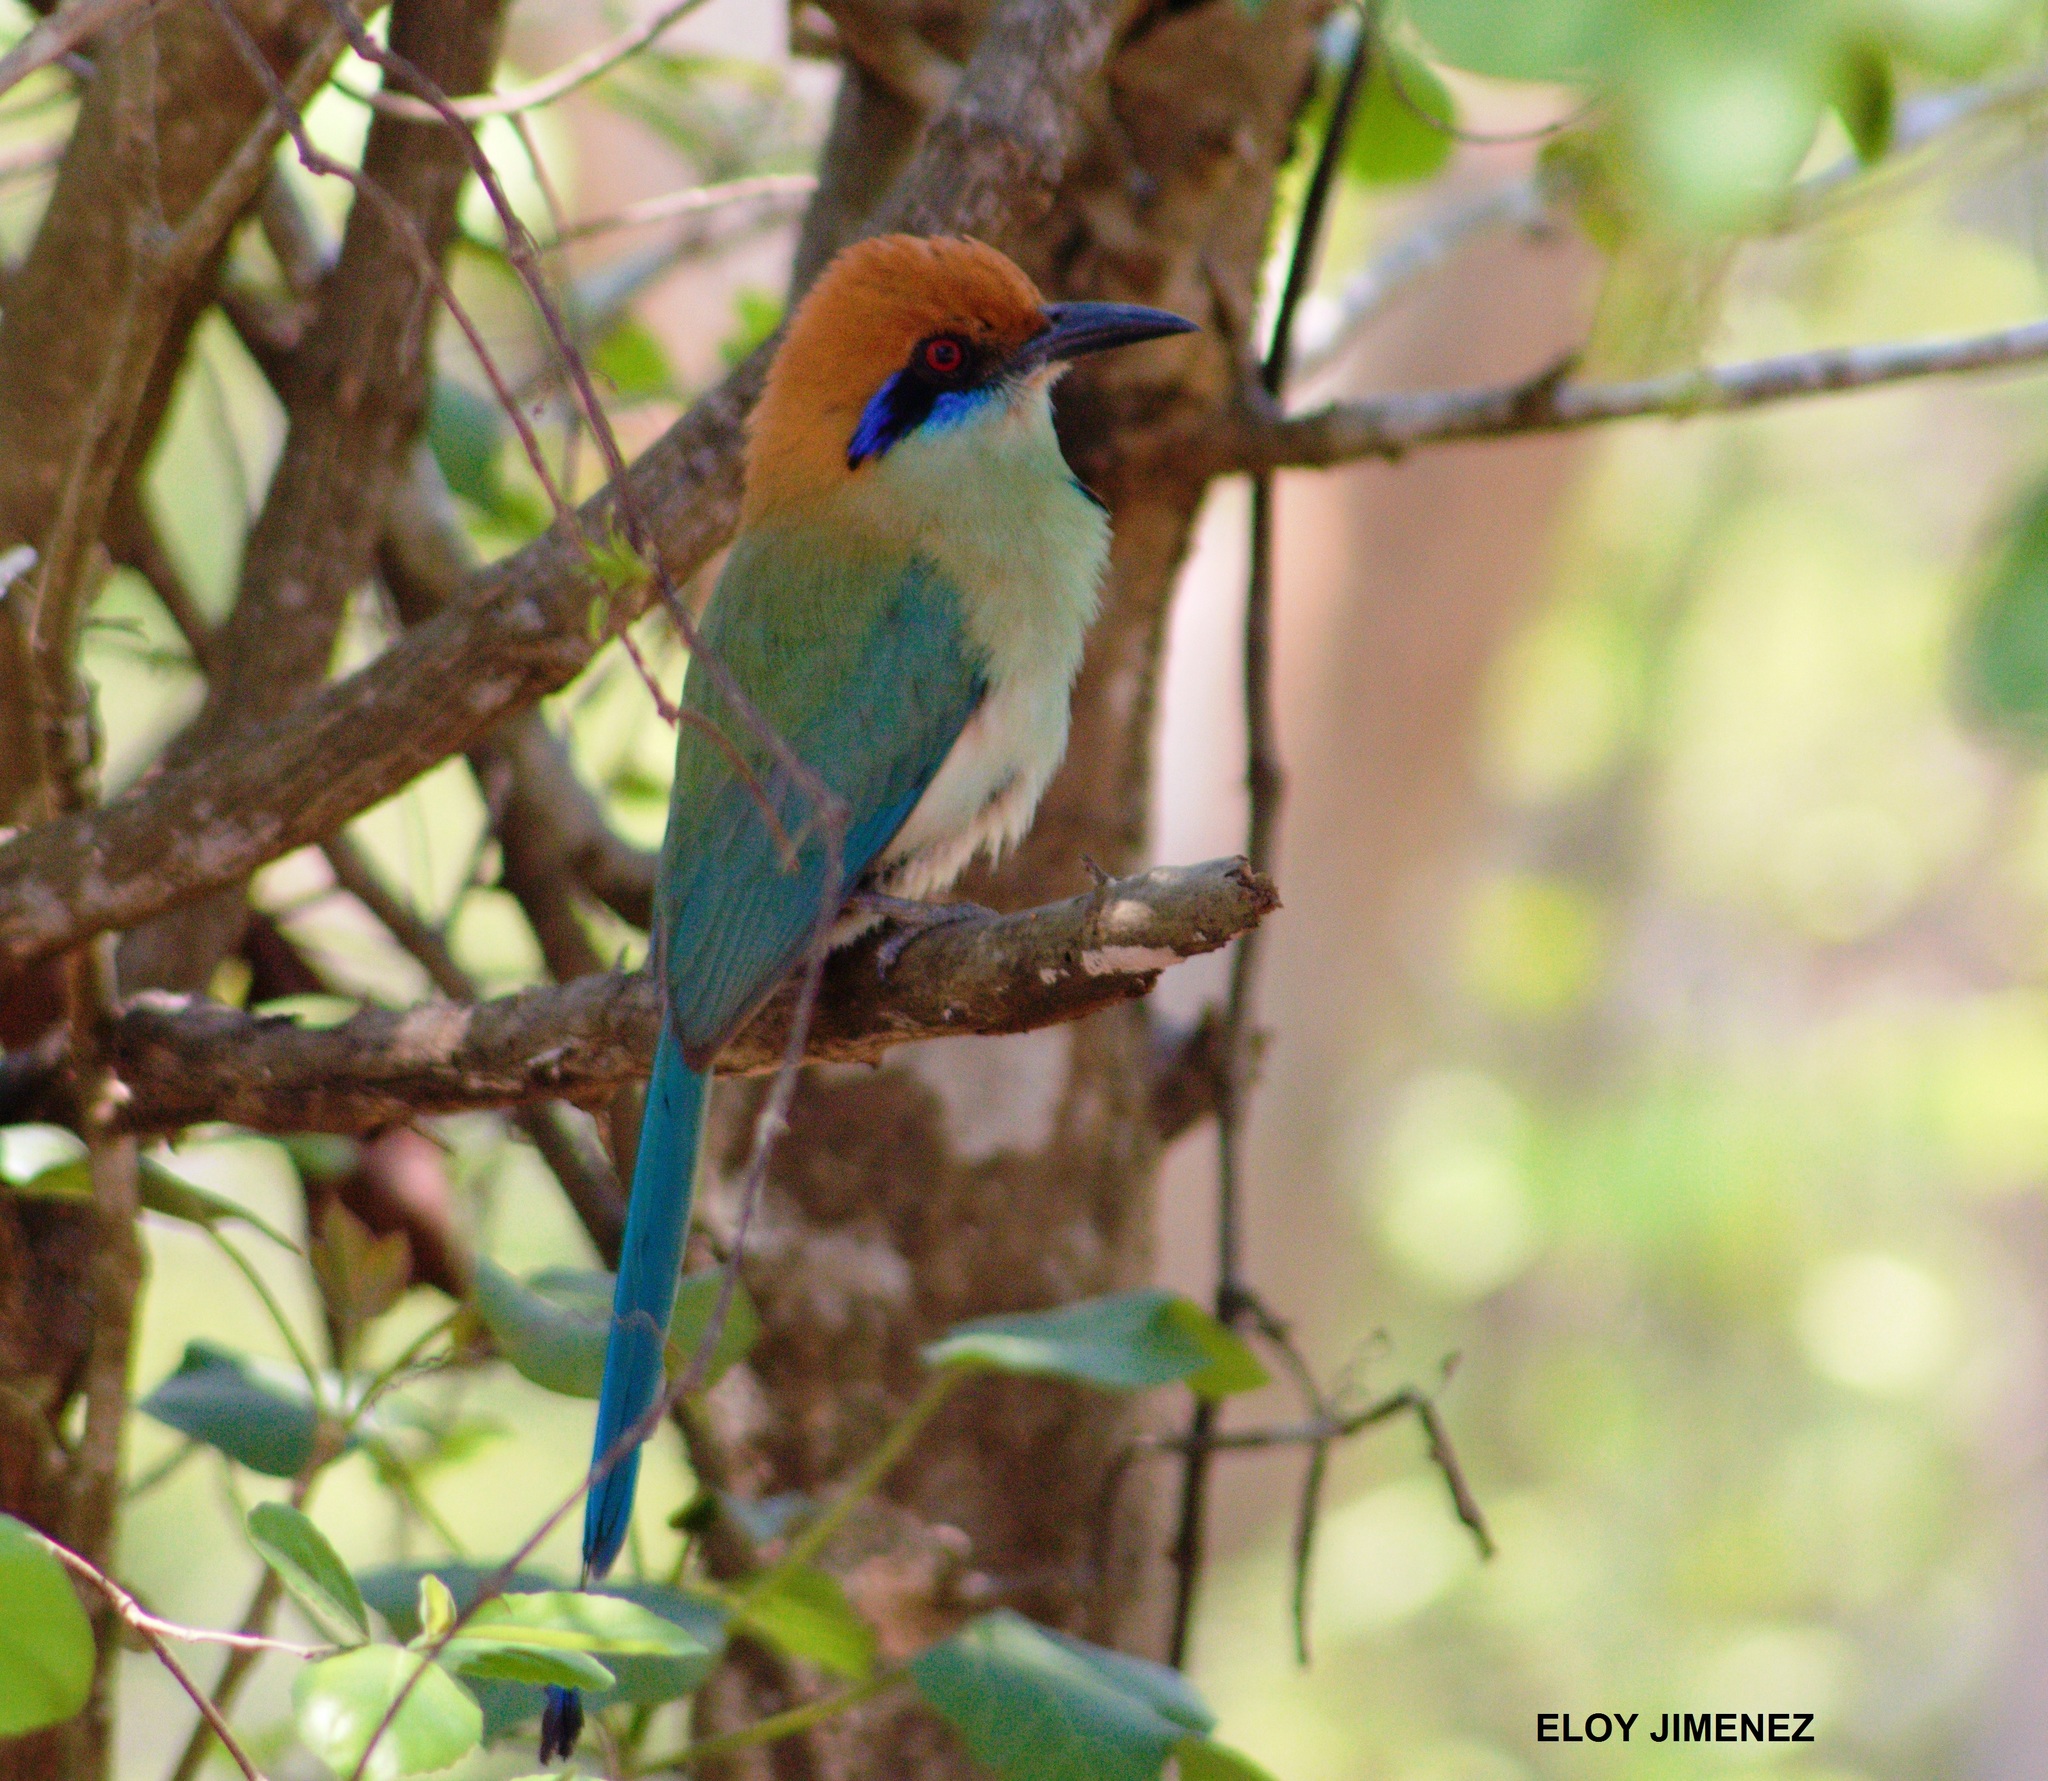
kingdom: Animalia
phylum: Chordata
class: Aves
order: Coraciiformes
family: Momotidae
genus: Momotus
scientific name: Momotus mexicanus
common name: Russet-crowned motmot
